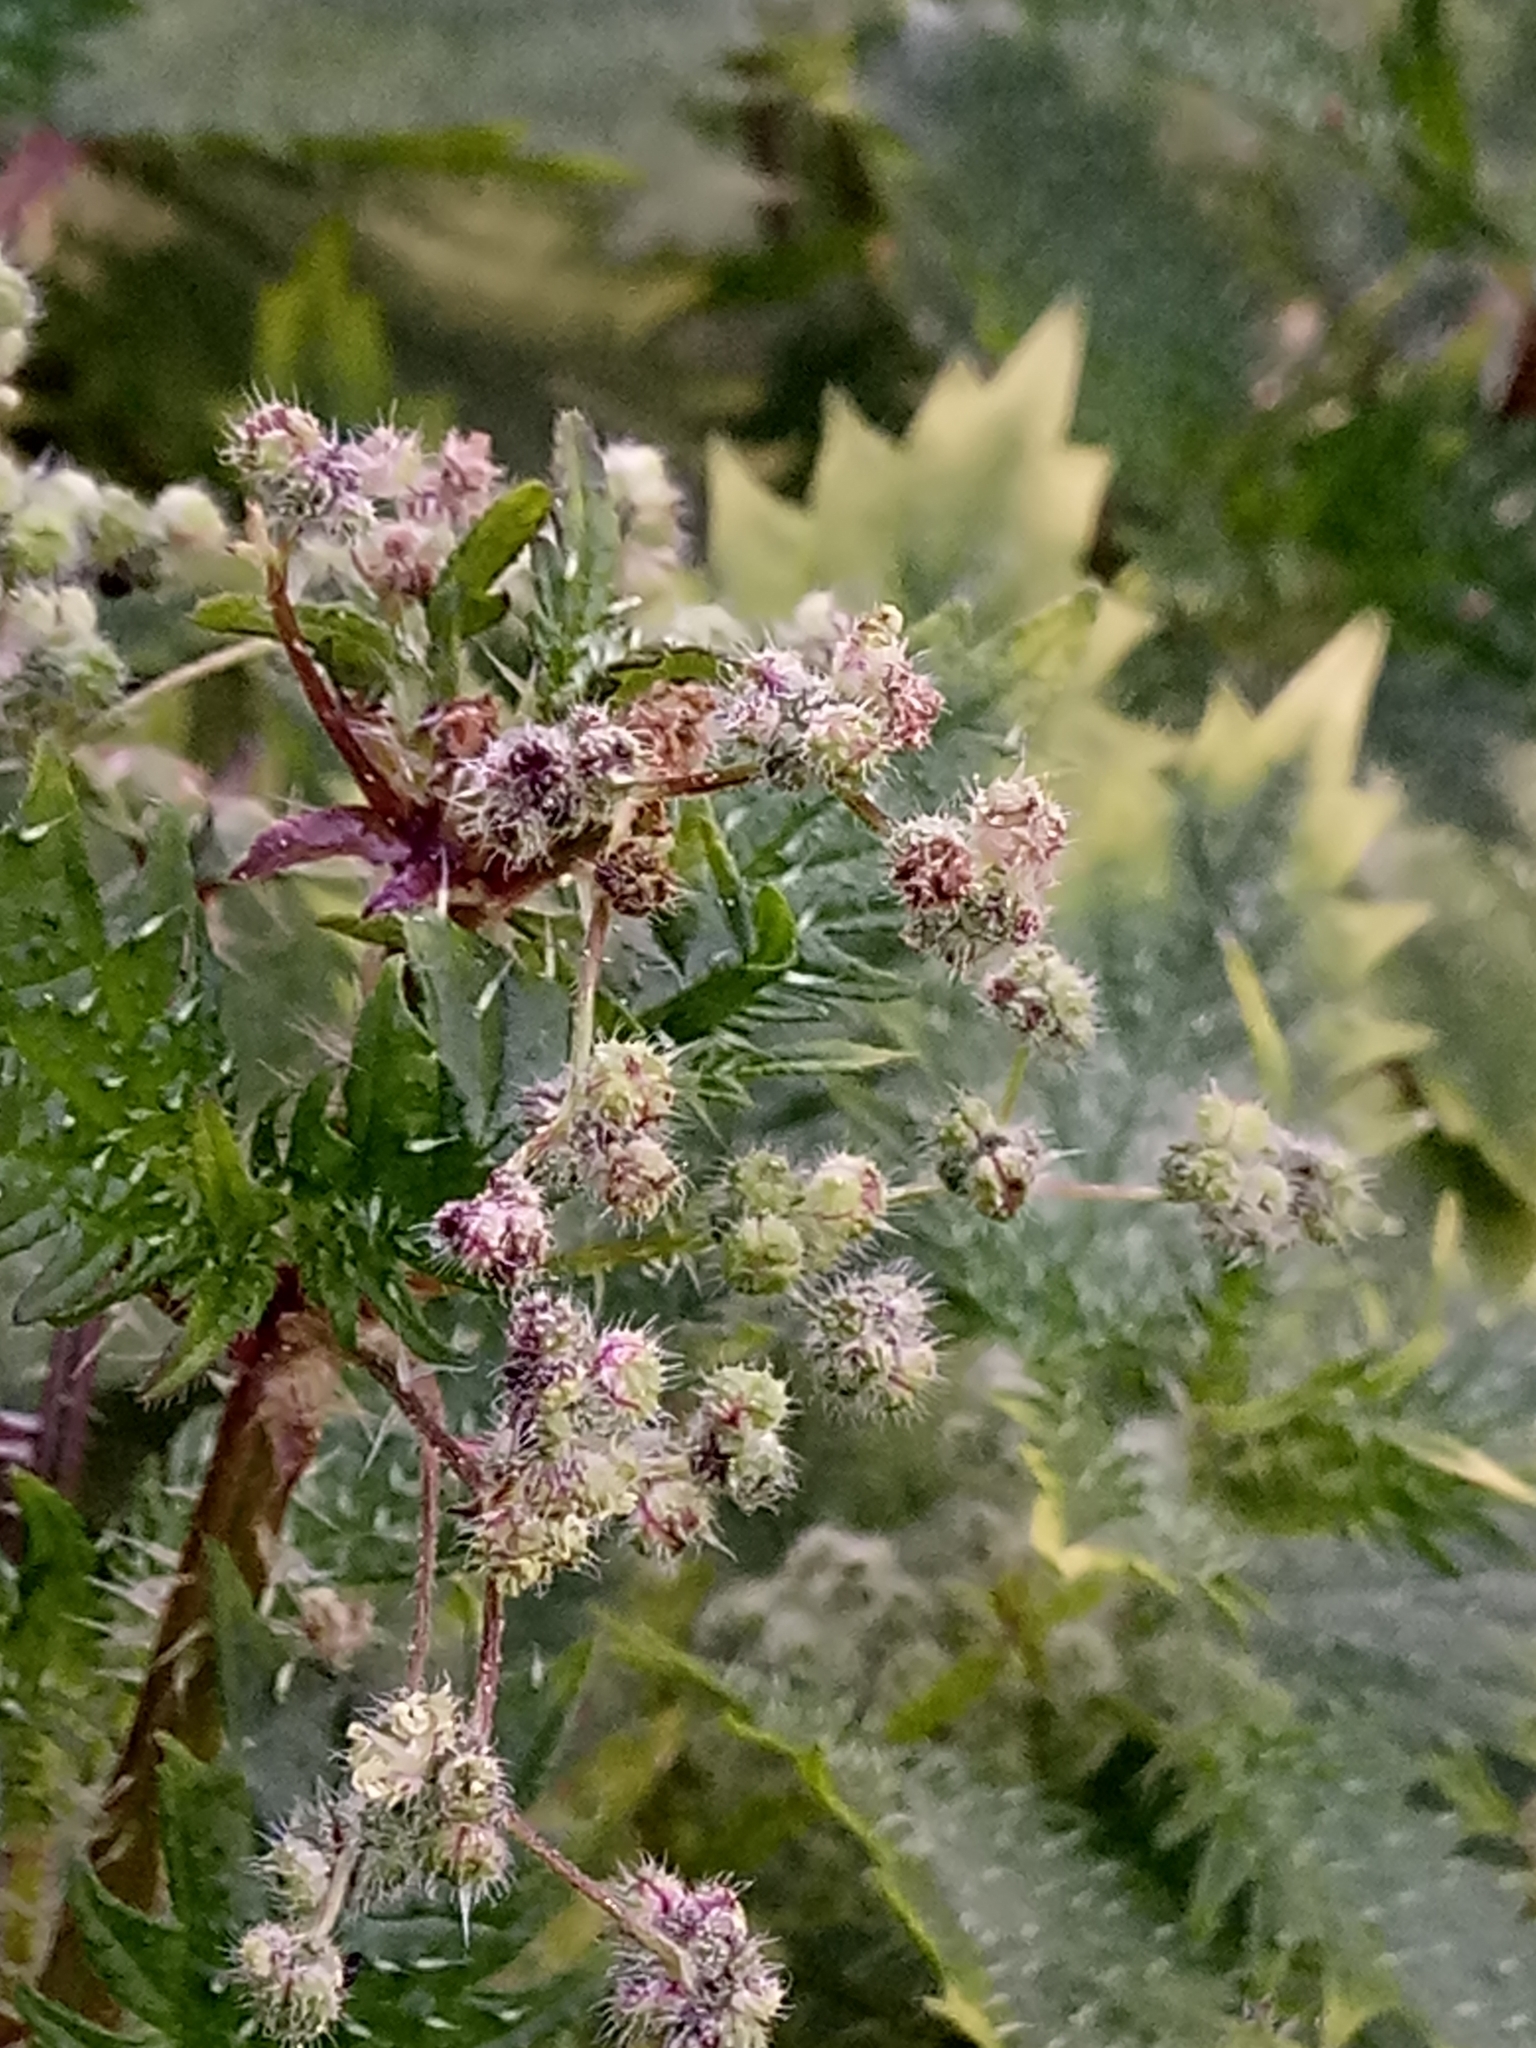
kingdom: Plantae
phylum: Tracheophyta
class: Magnoliopsida
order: Rosales
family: Urticaceae
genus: Urtica
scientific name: Urtica pilulifera
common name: Roman nettle
